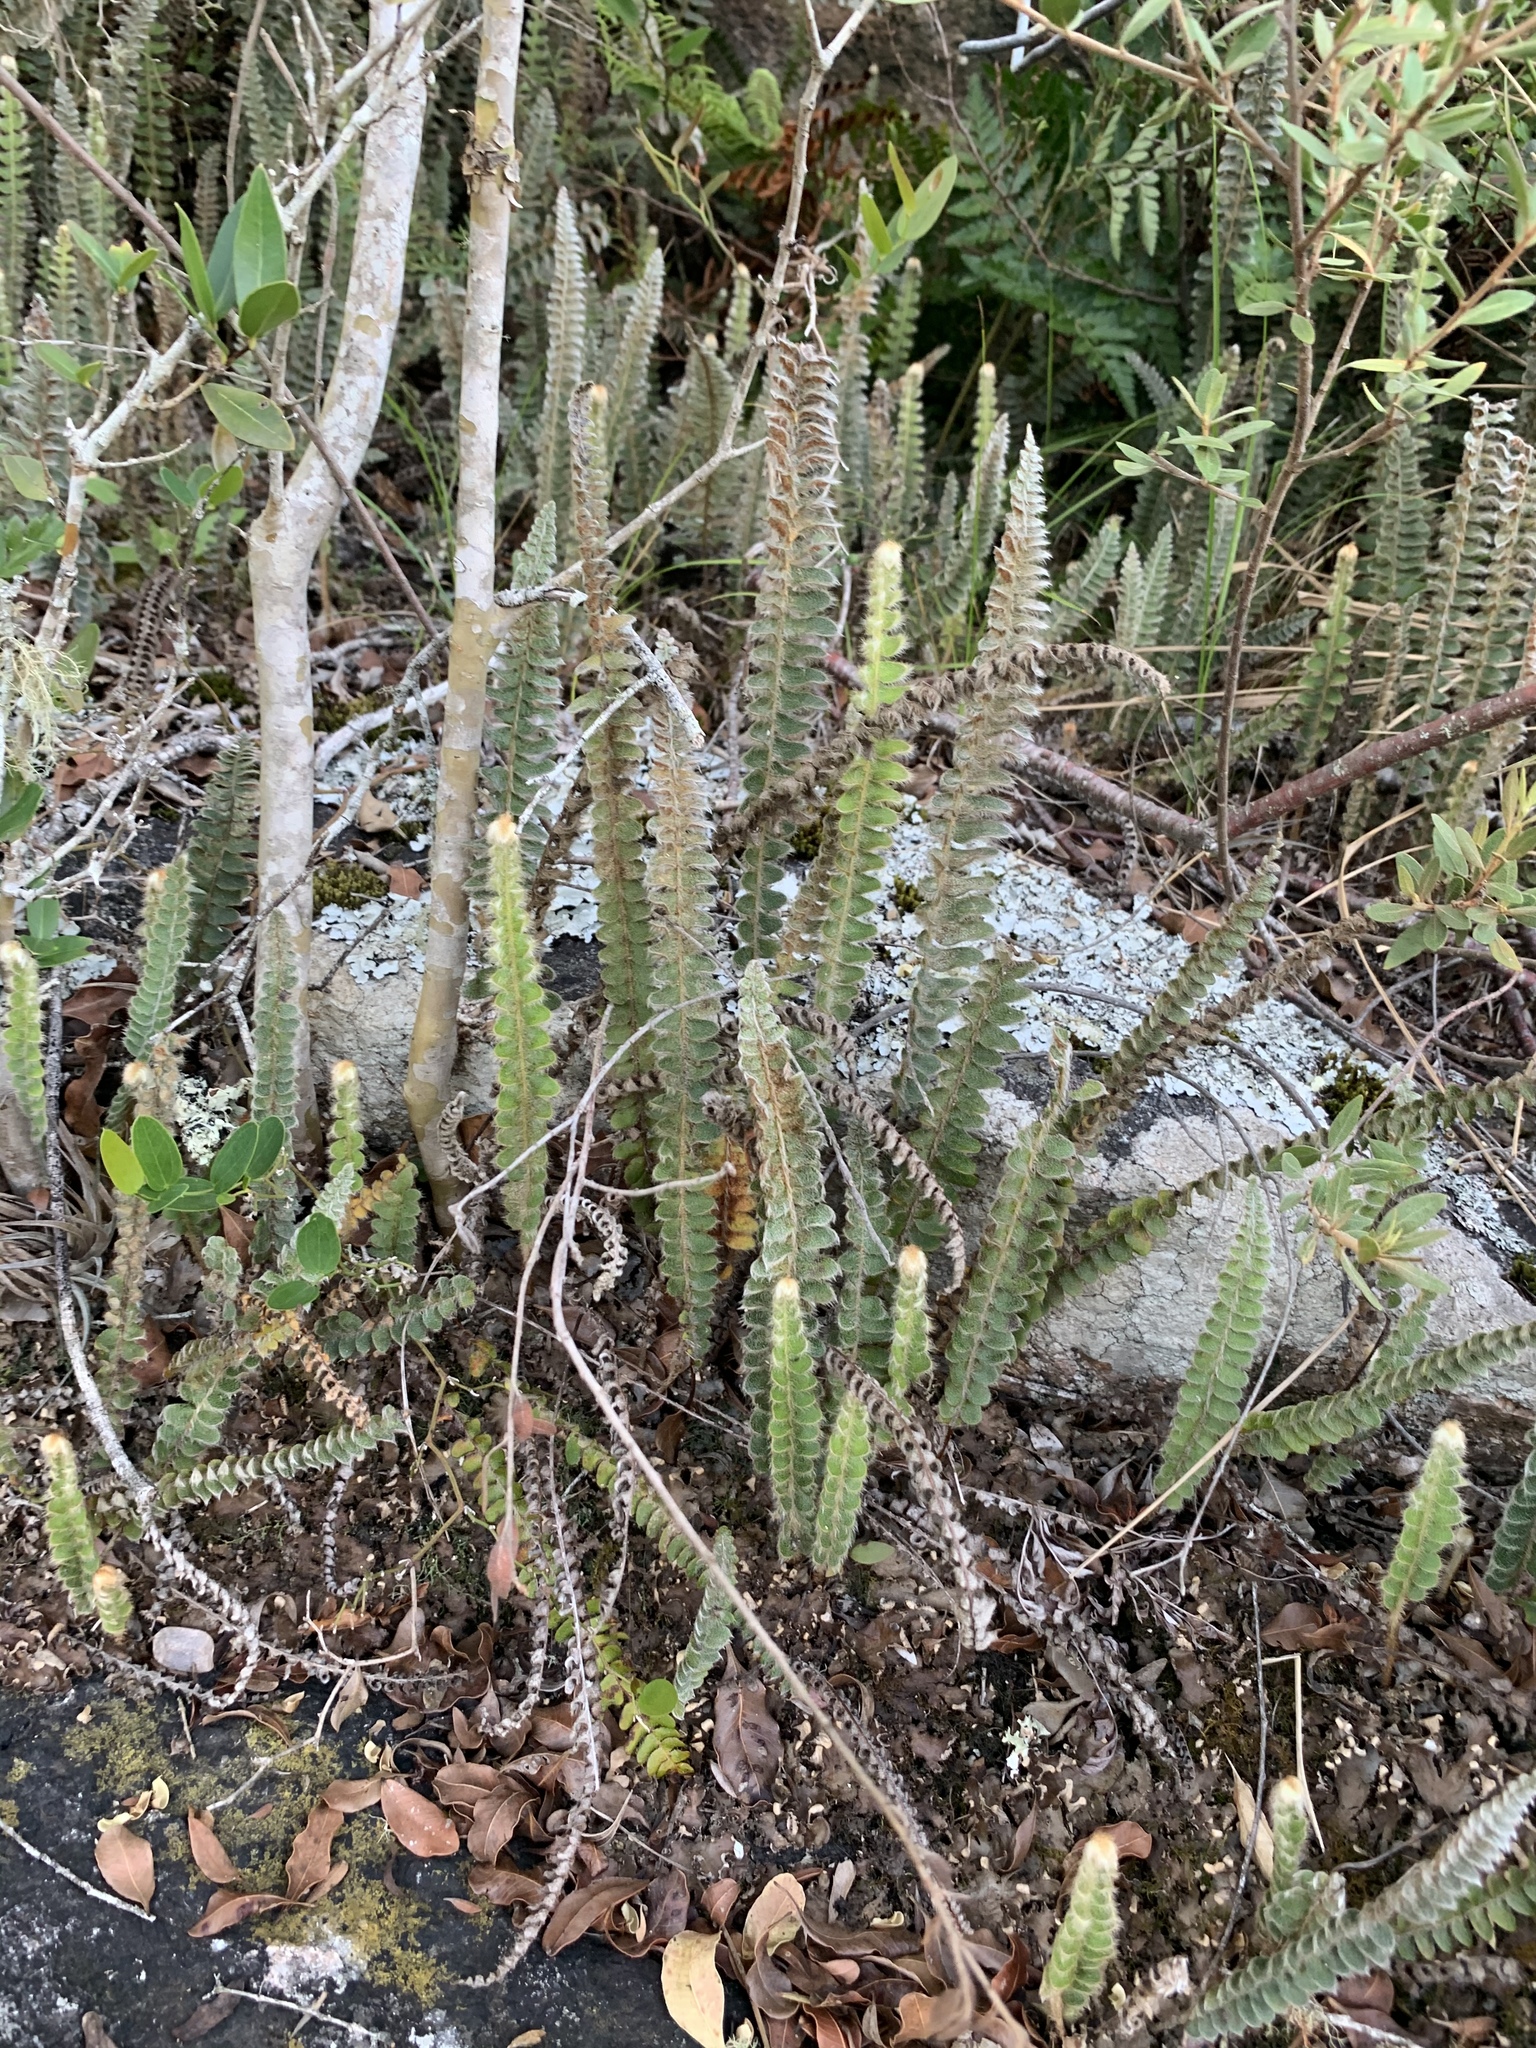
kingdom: Plantae
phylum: Tracheophyta
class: Polypodiopsida
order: Polypodiales
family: Polypodiaceae
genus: Pleopeltis
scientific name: Pleopeltis lepidopteris
